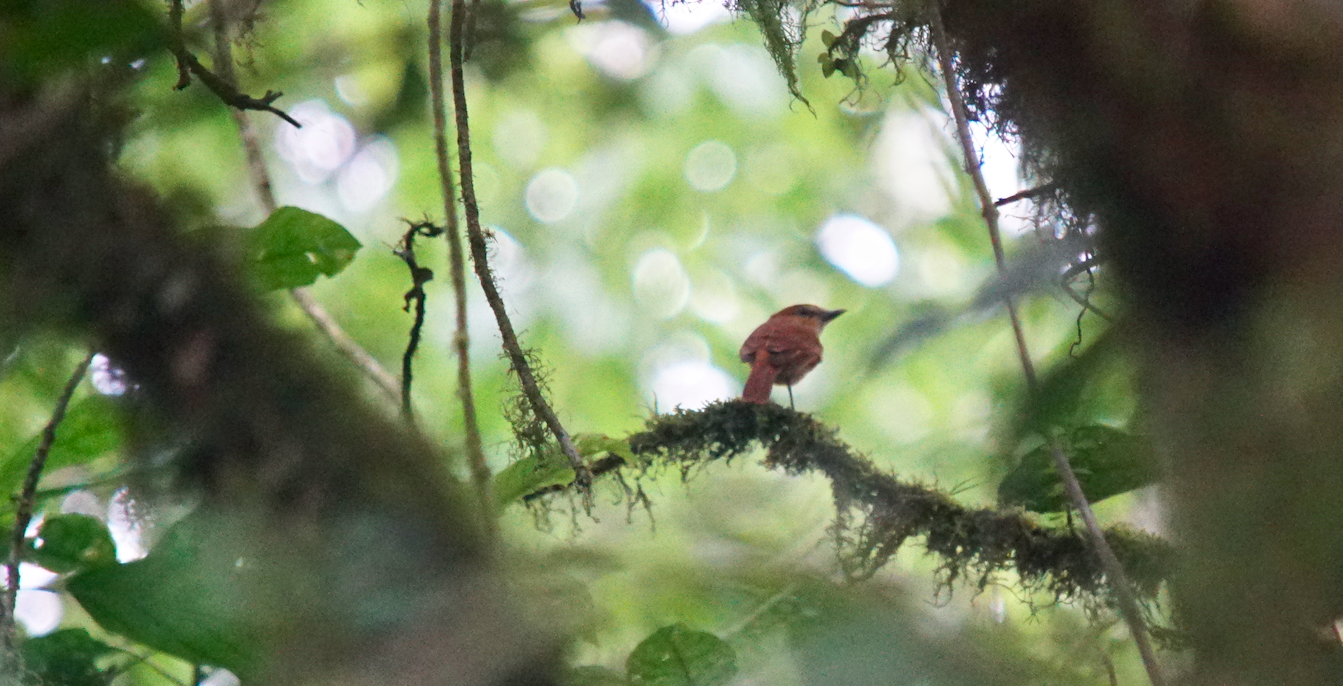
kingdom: Animalia
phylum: Chordata
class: Aves
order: Passeriformes
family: Cotingidae
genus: Pachyramphus
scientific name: Pachyramphus cinnamomeus
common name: Cinnamon becard
